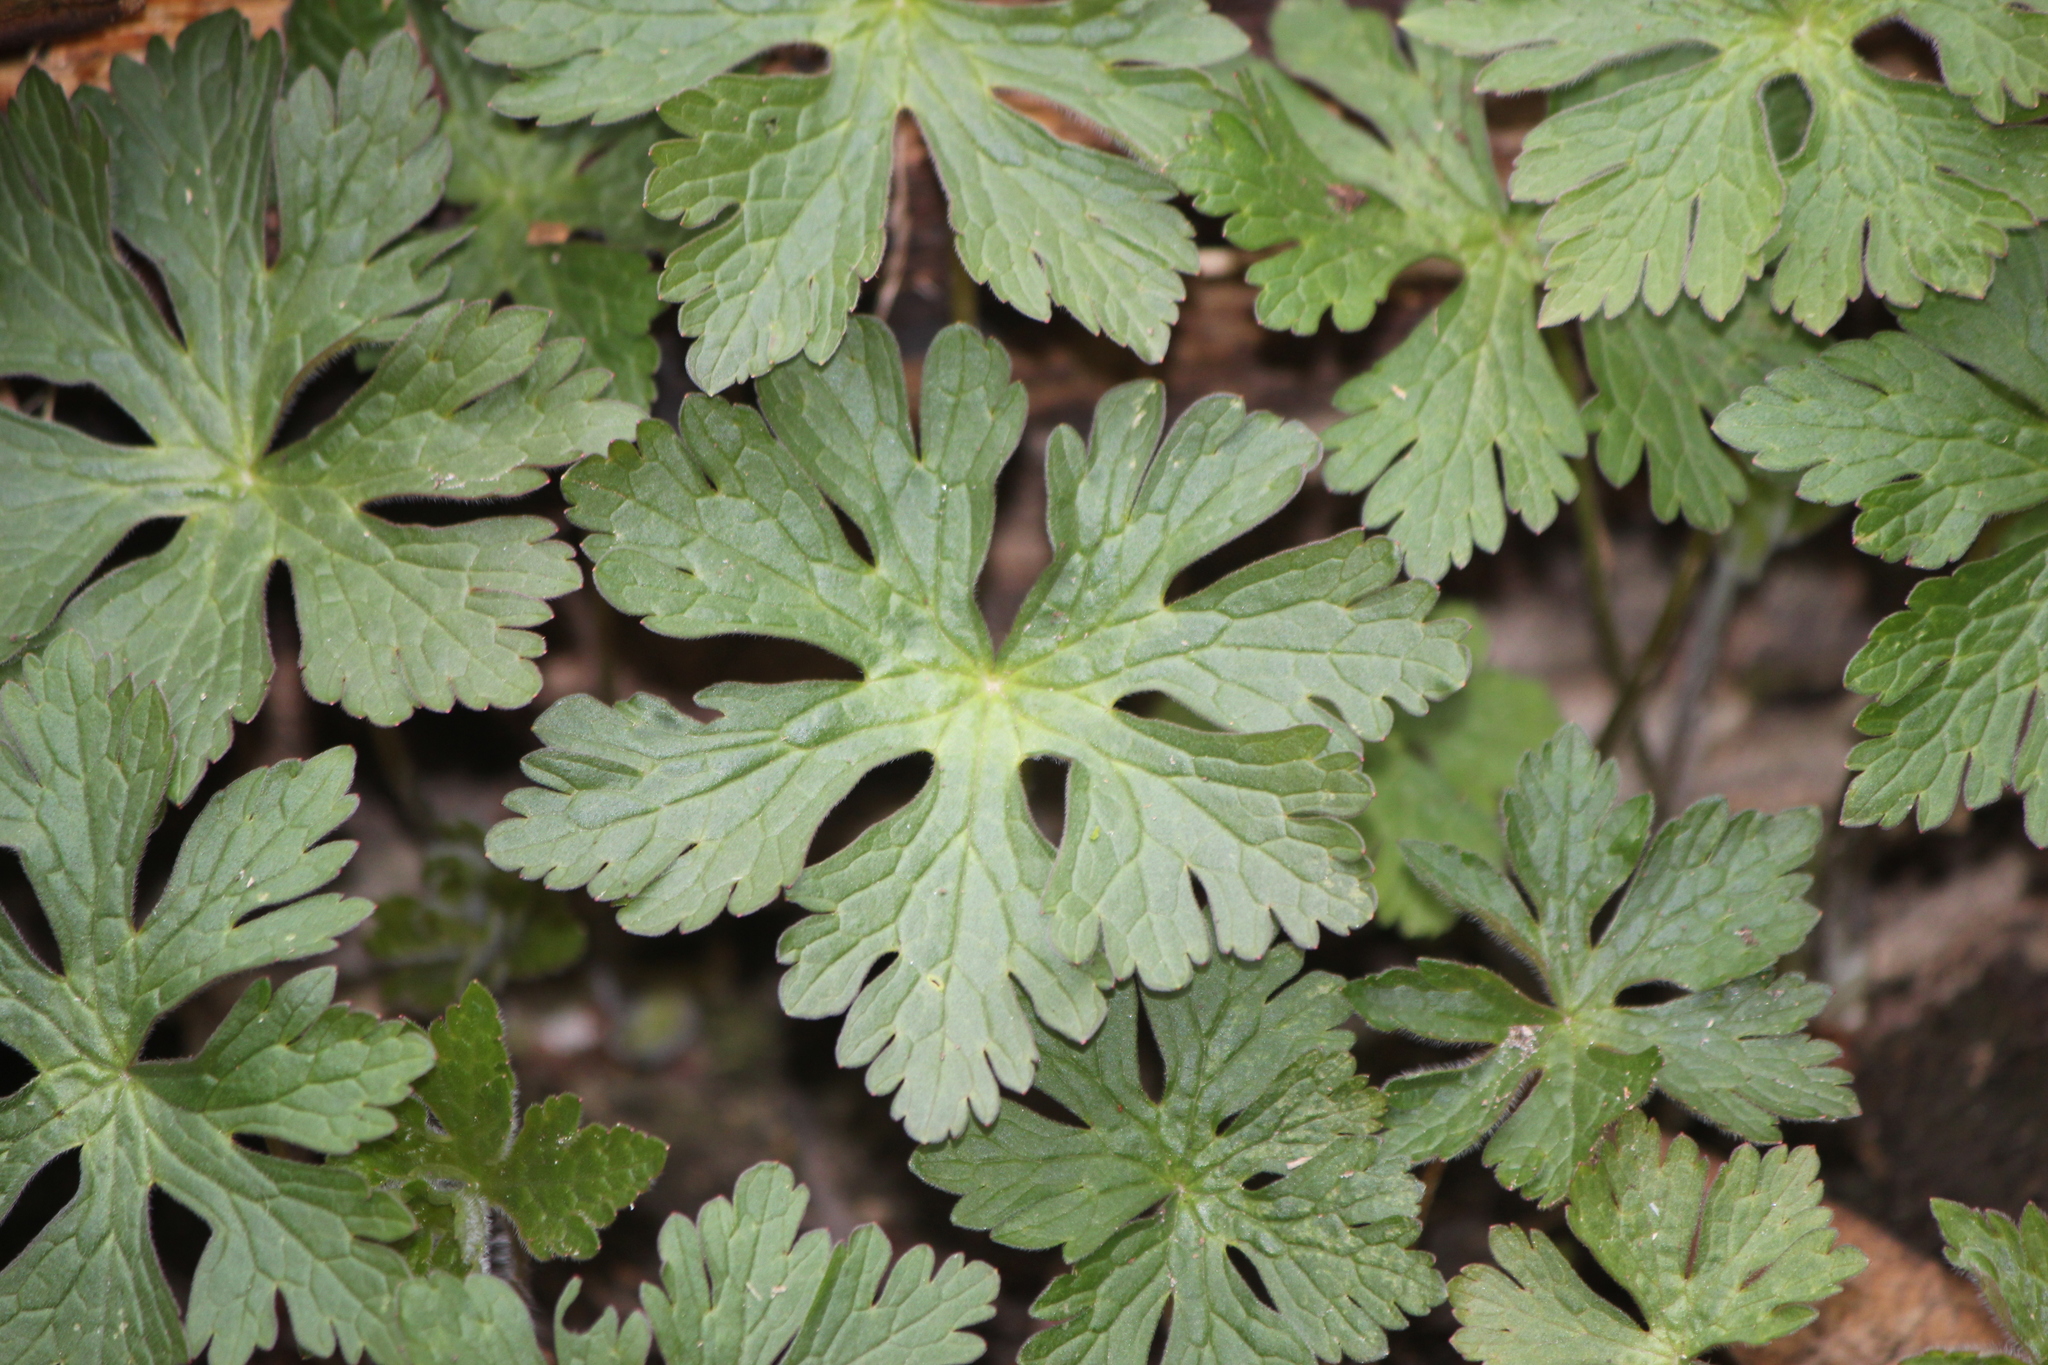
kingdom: Plantae
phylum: Tracheophyta
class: Magnoliopsida
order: Geraniales
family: Geraniaceae
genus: Geranium
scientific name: Geranium maculatum
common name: Spotted geranium
